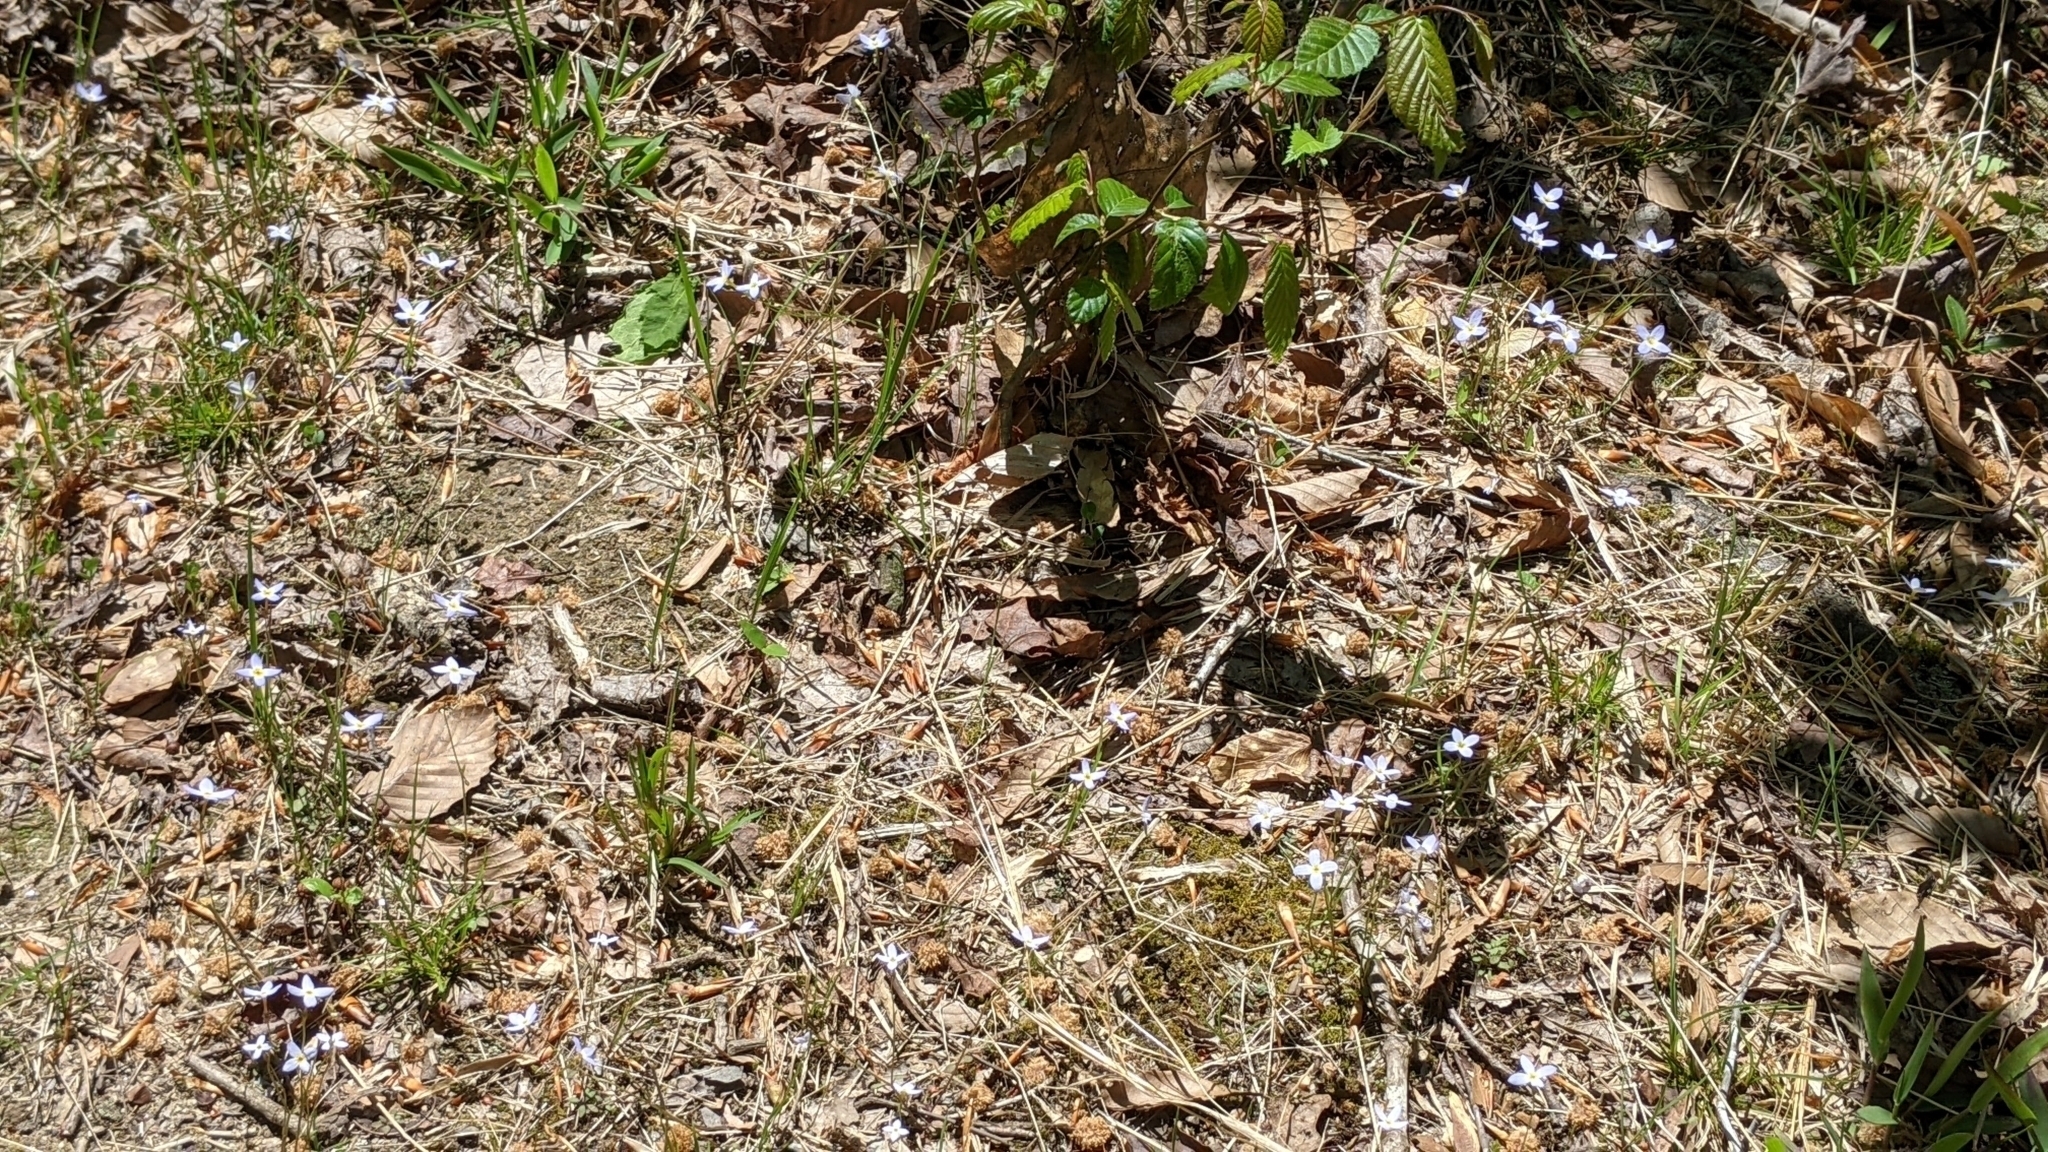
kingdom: Plantae
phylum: Tracheophyta
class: Magnoliopsida
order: Gentianales
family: Rubiaceae
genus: Houstonia
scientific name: Houstonia caerulea
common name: Bluets
